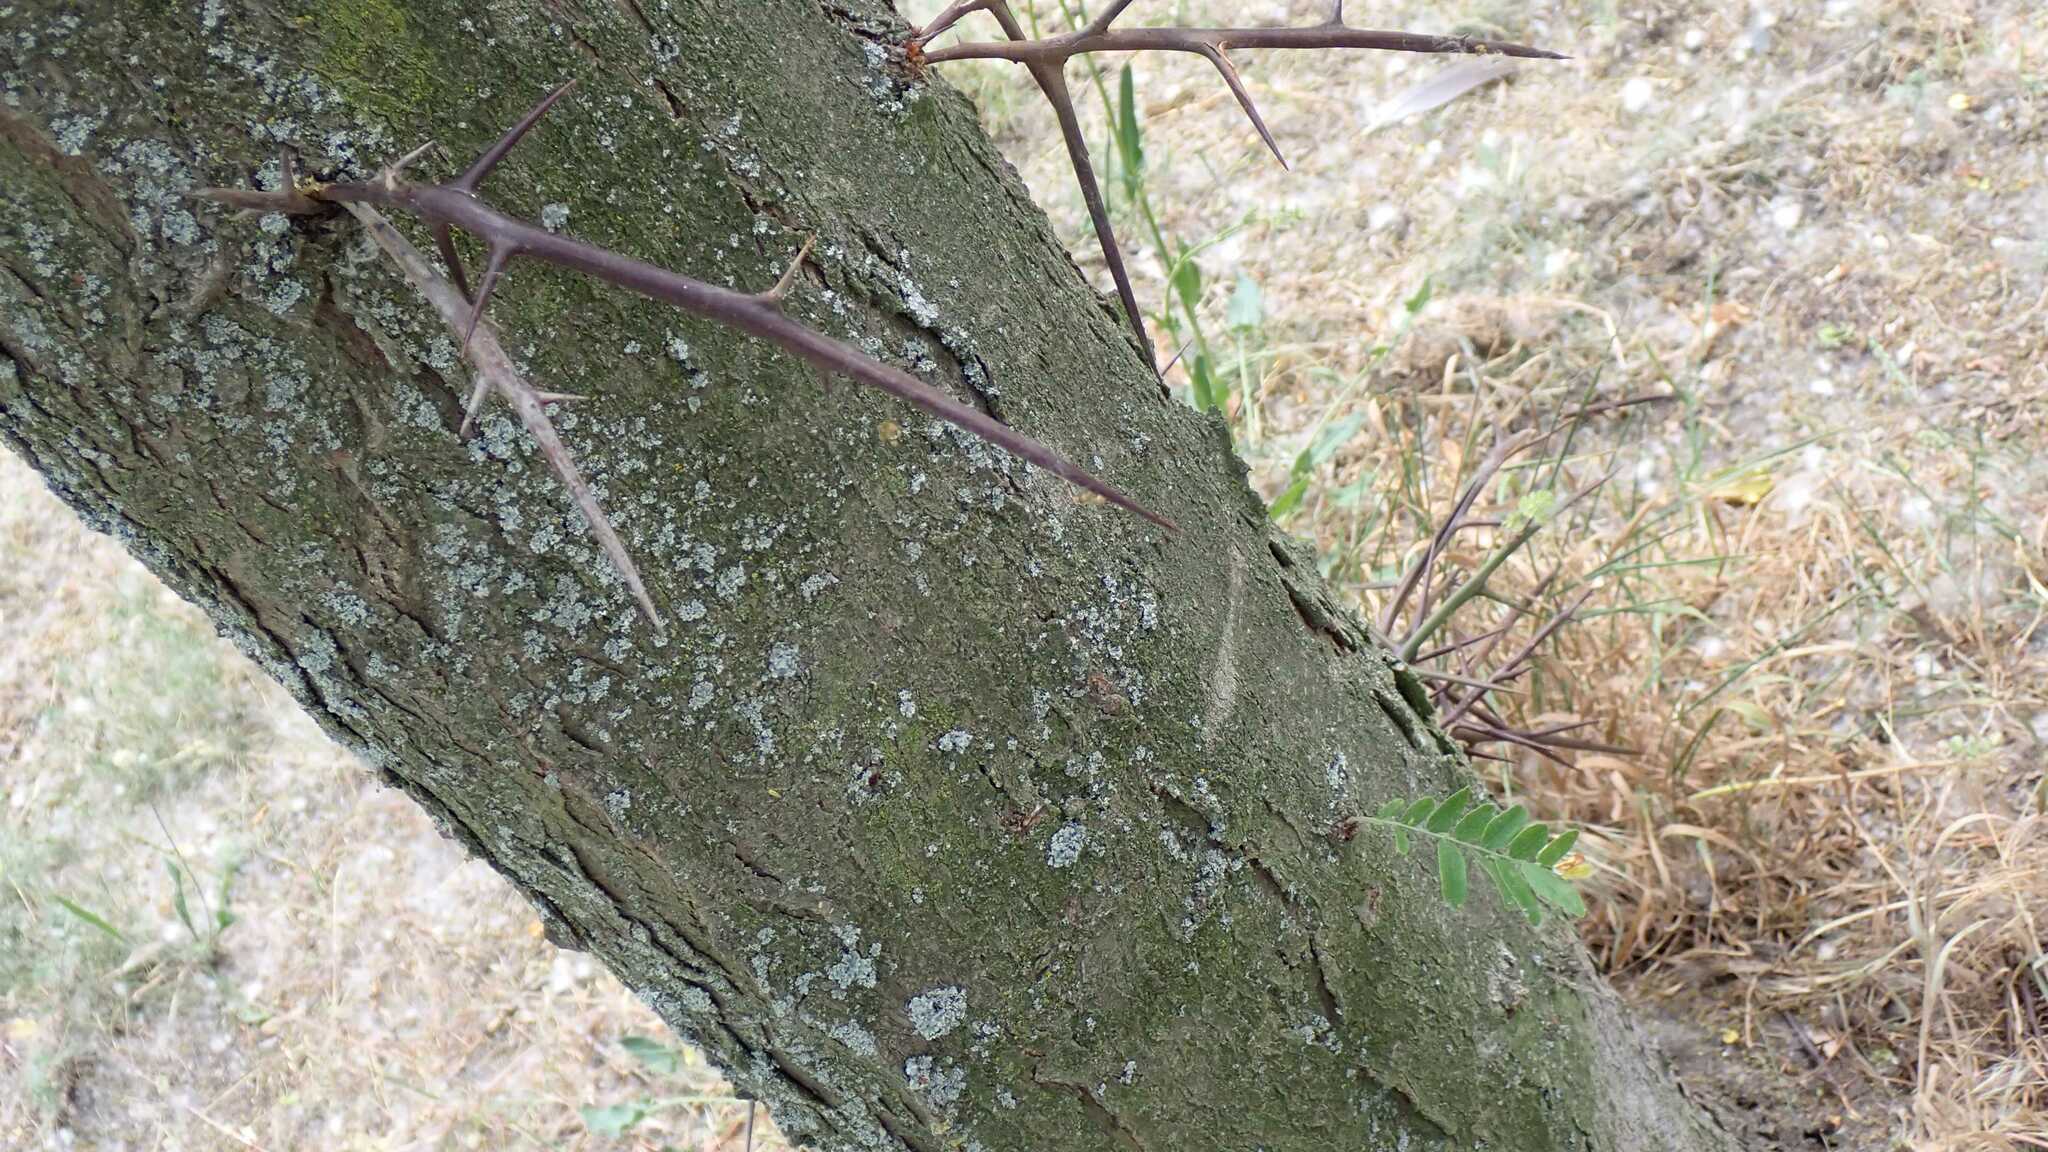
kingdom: Animalia
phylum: Arthropoda
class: Insecta
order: Hemiptera
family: Cicadellidae
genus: Stragania
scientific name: Stragania apicalis
